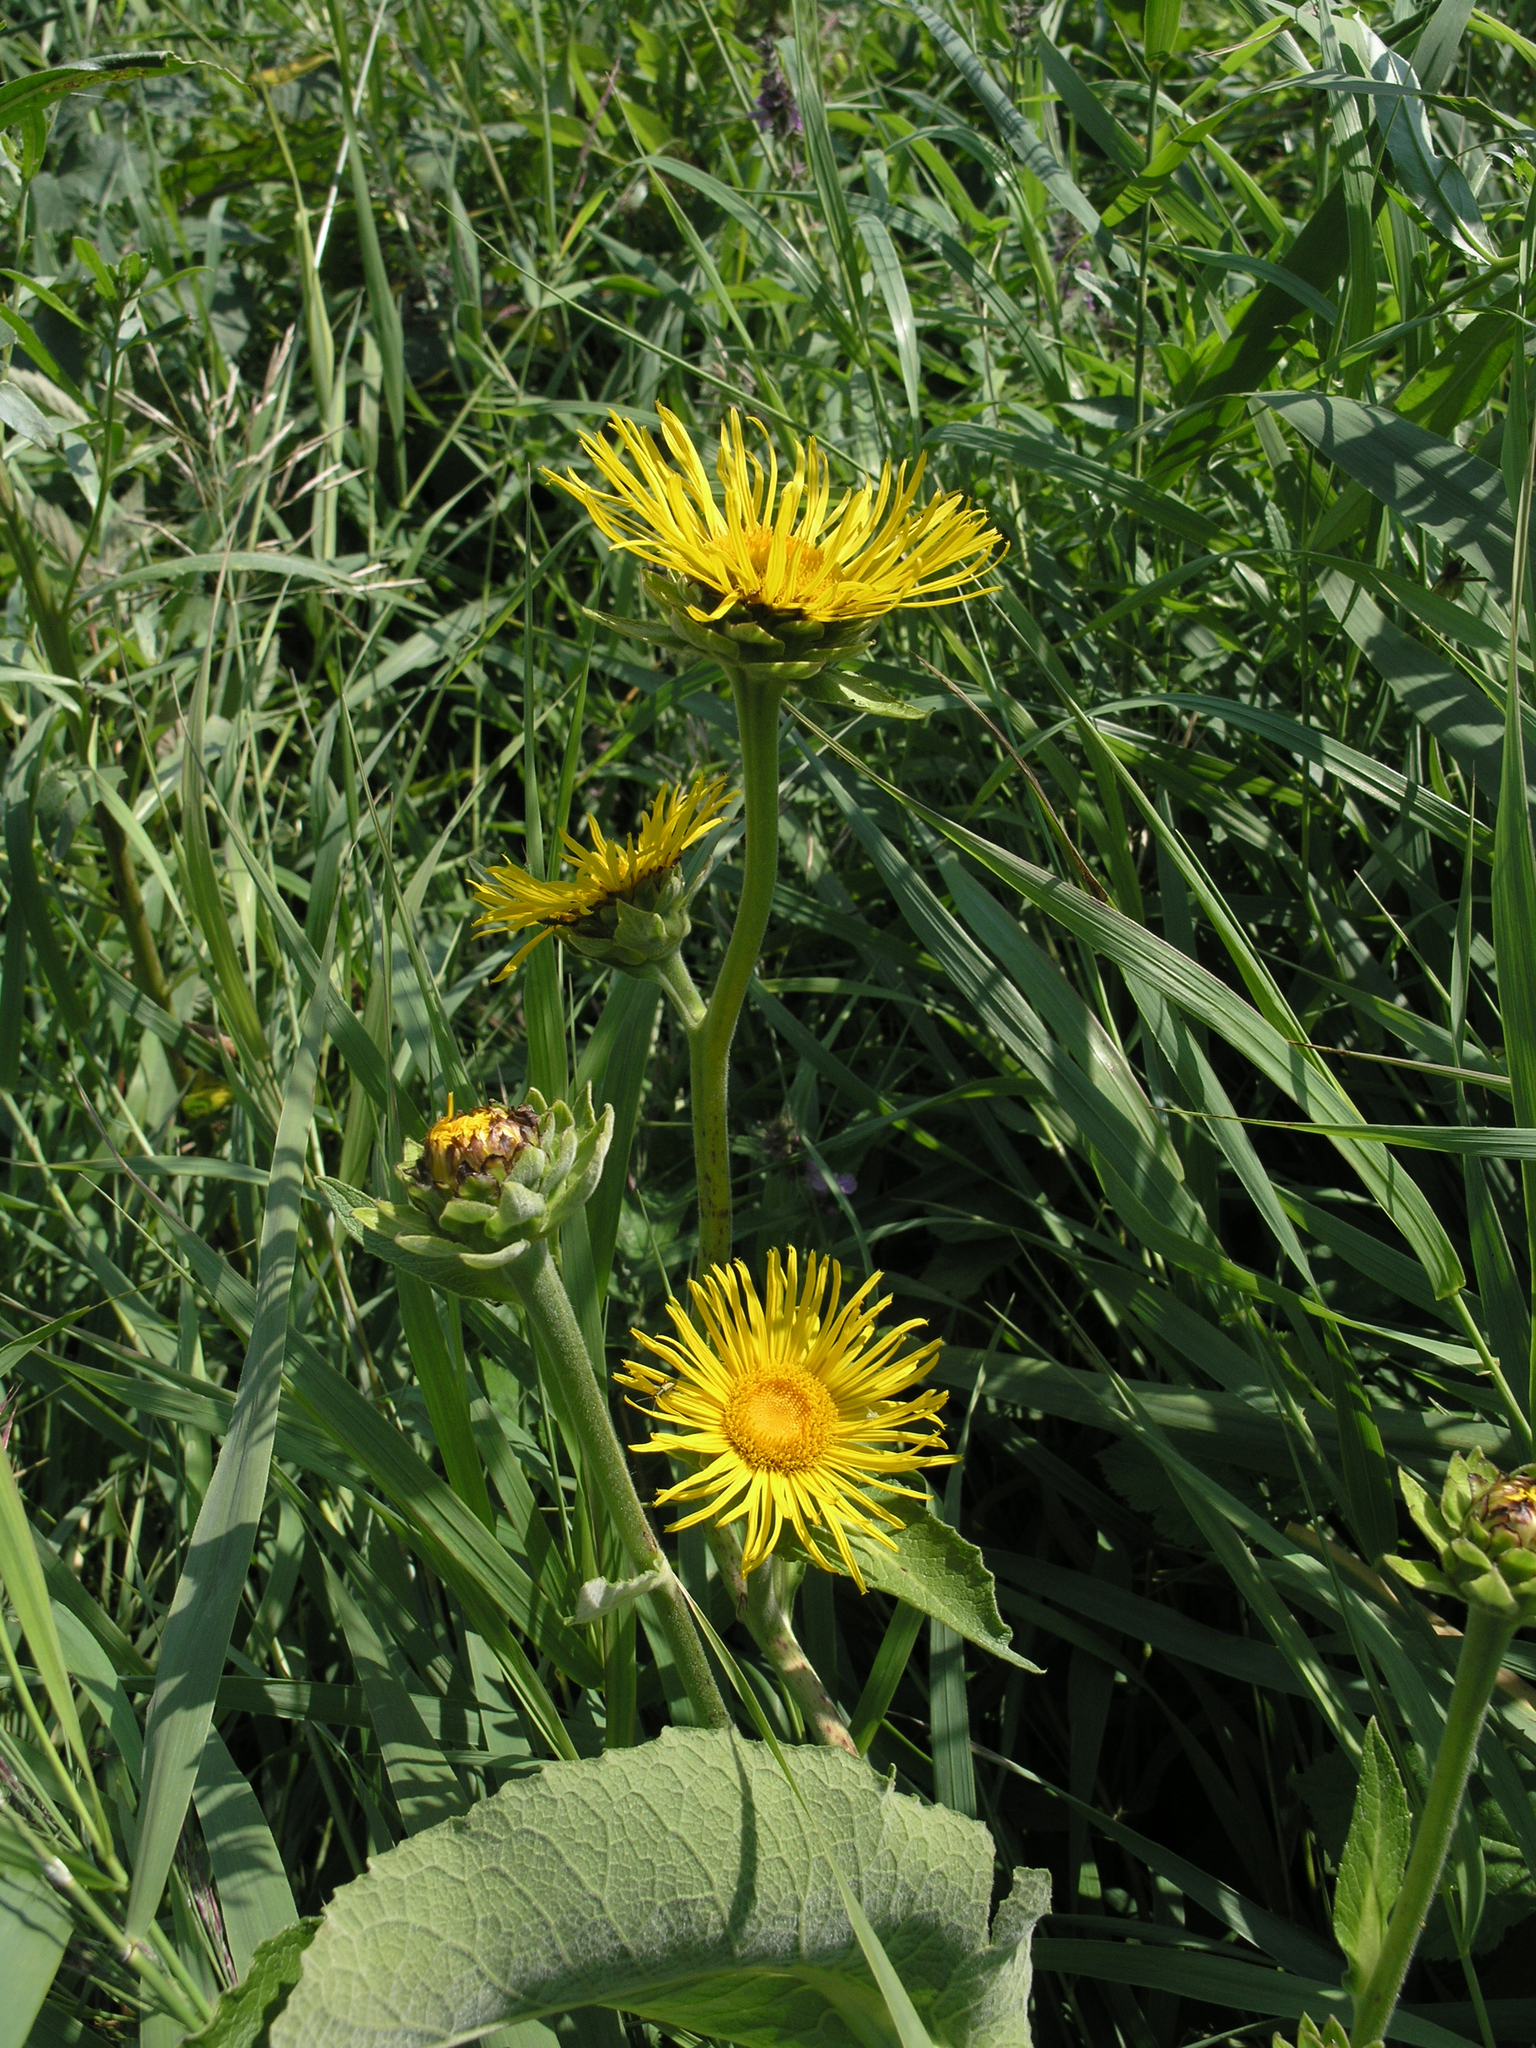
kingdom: Plantae
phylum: Tracheophyta
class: Magnoliopsida
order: Asterales
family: Asteraceae
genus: Inula
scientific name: Inula helenium
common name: Elecampane
